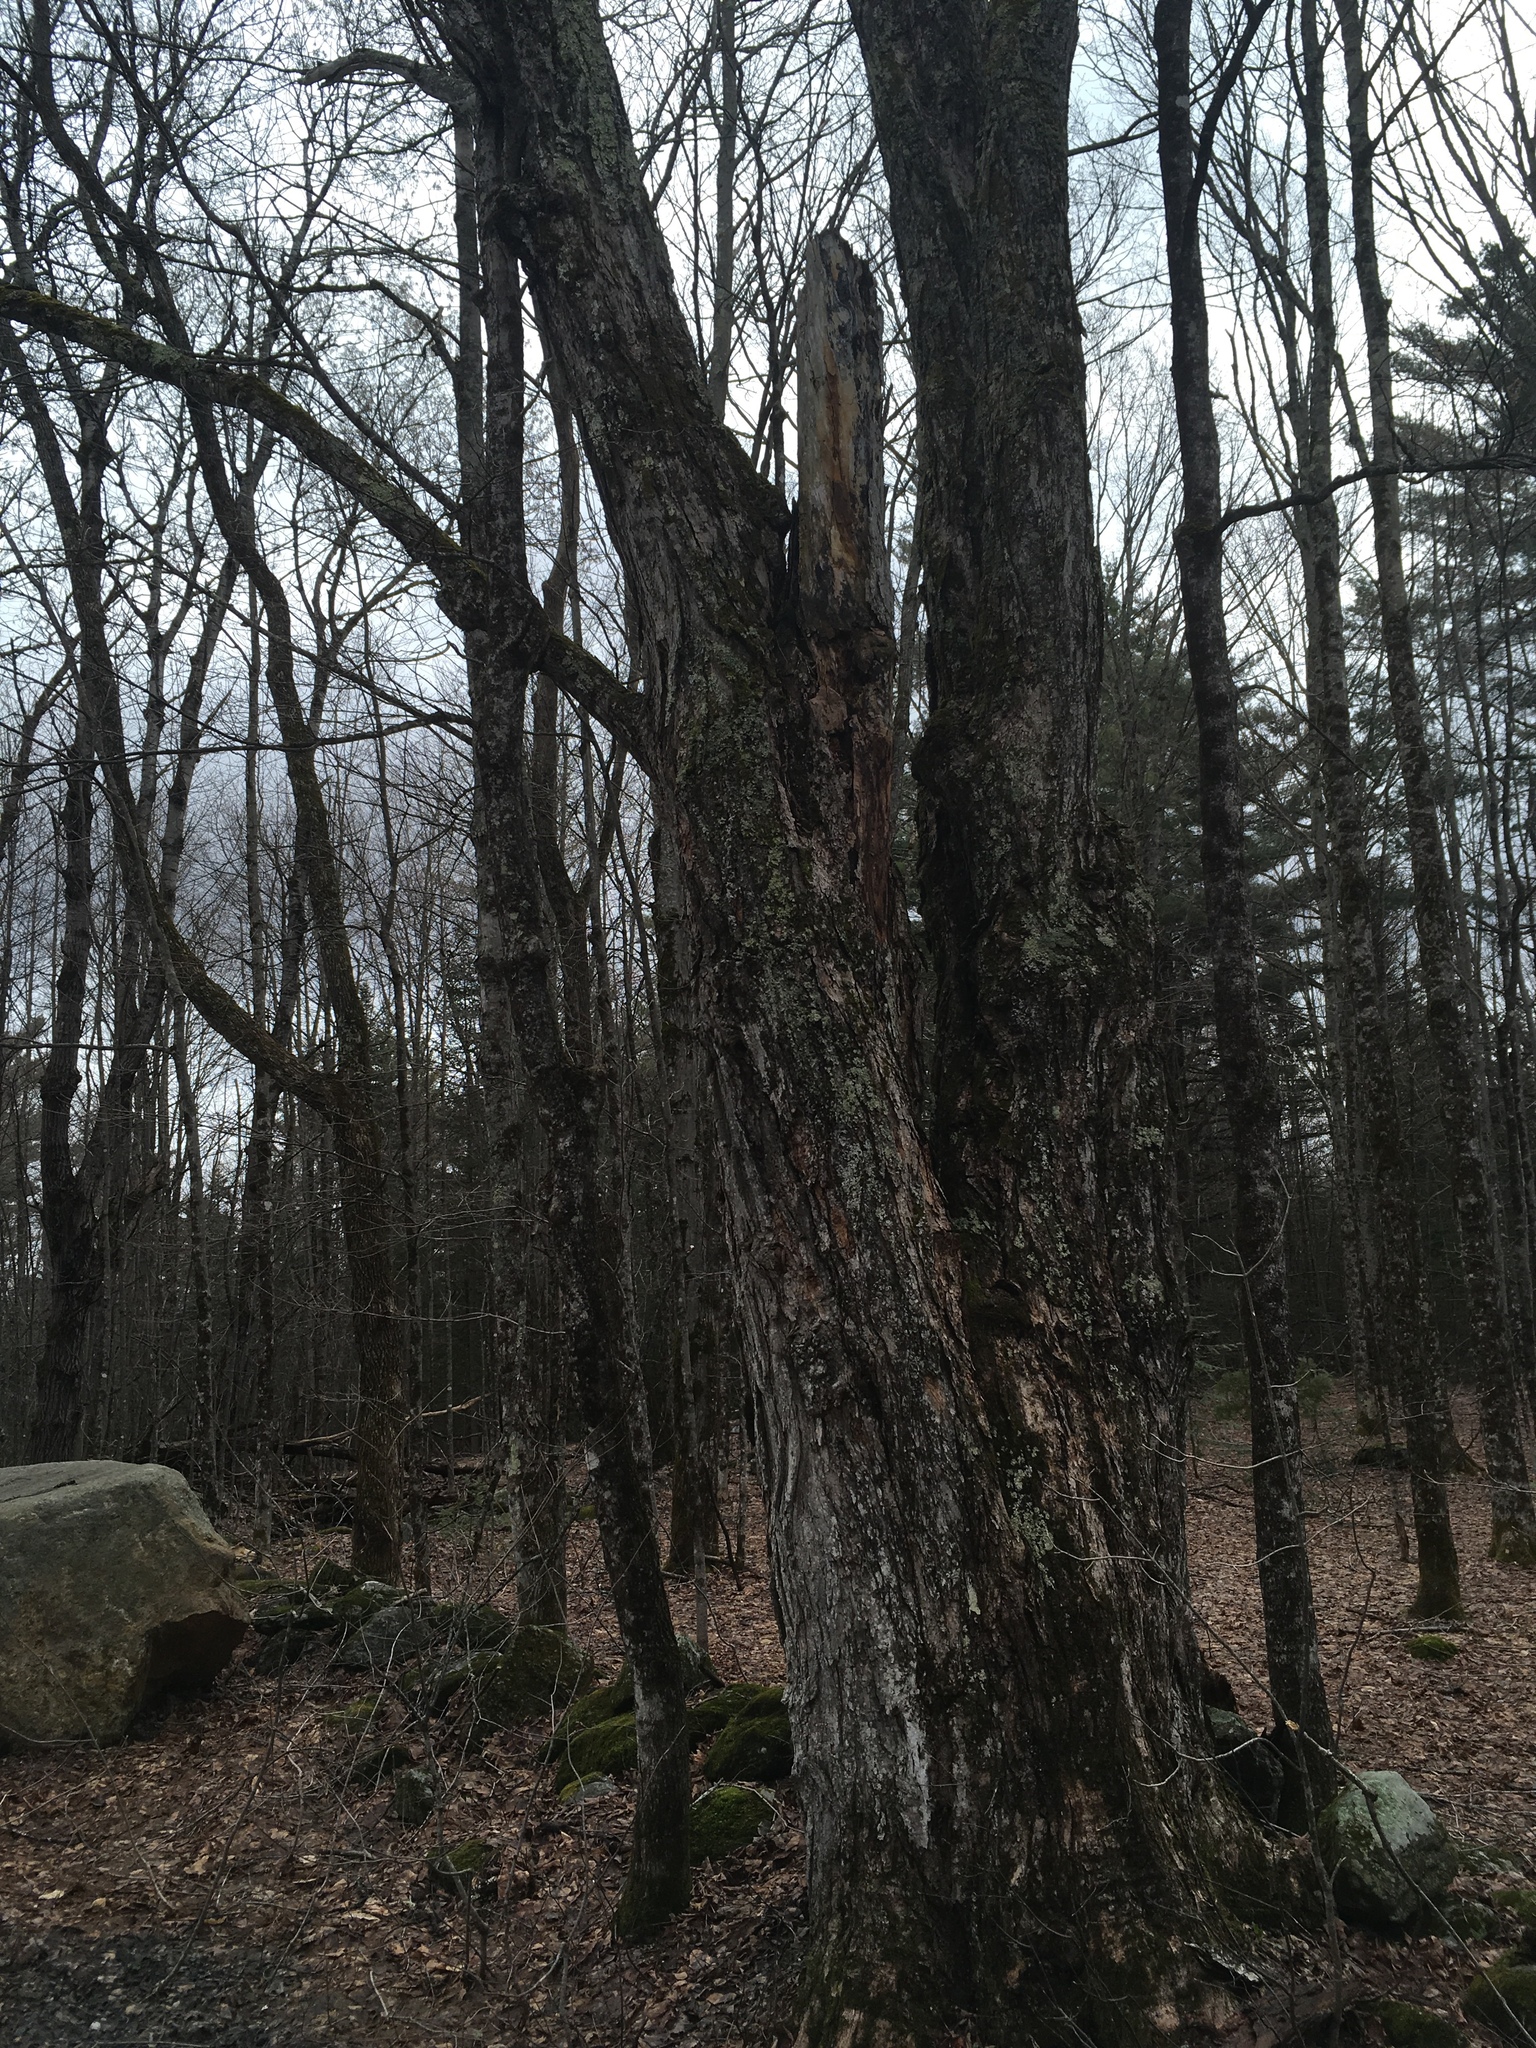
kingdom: Plantae
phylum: Tracheophyta
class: Magnoliopsida
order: Sapindales
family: Sapindaceae
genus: Acer
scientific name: Acer saccharum
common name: Sugar maple
